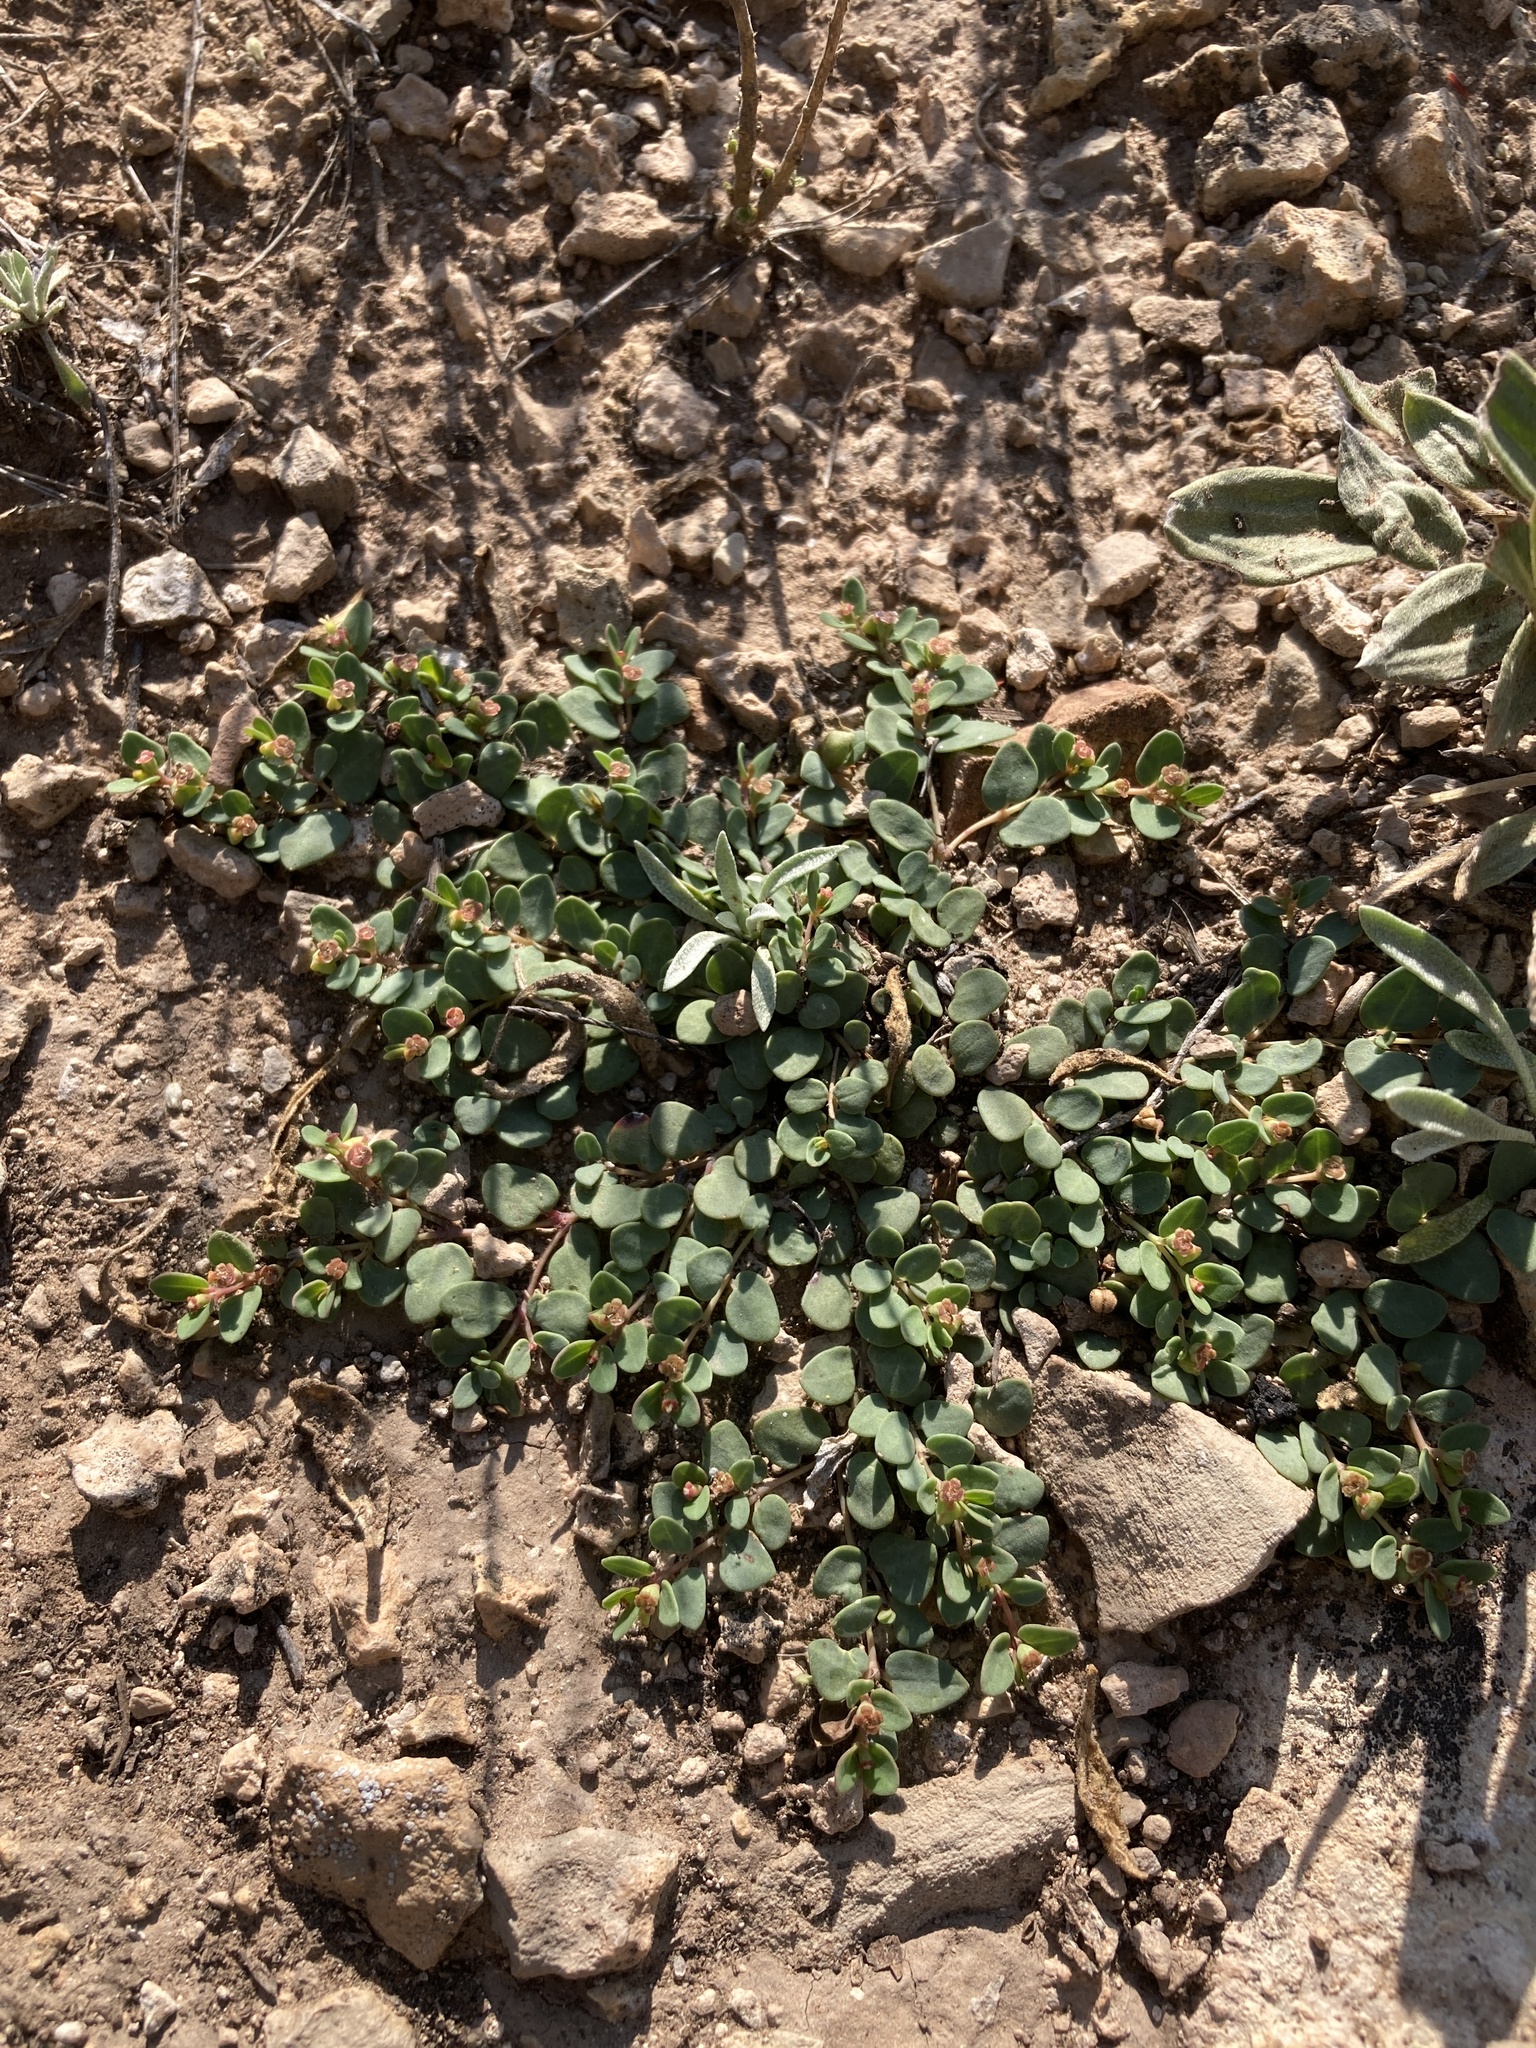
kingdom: Plantae
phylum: Tracheophyta
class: Magnoliopsida
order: Malpighiales
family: Euphorbiaceae
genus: Euphorbia
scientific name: Euphorbia fendleri
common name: Fendler's euphorbia
